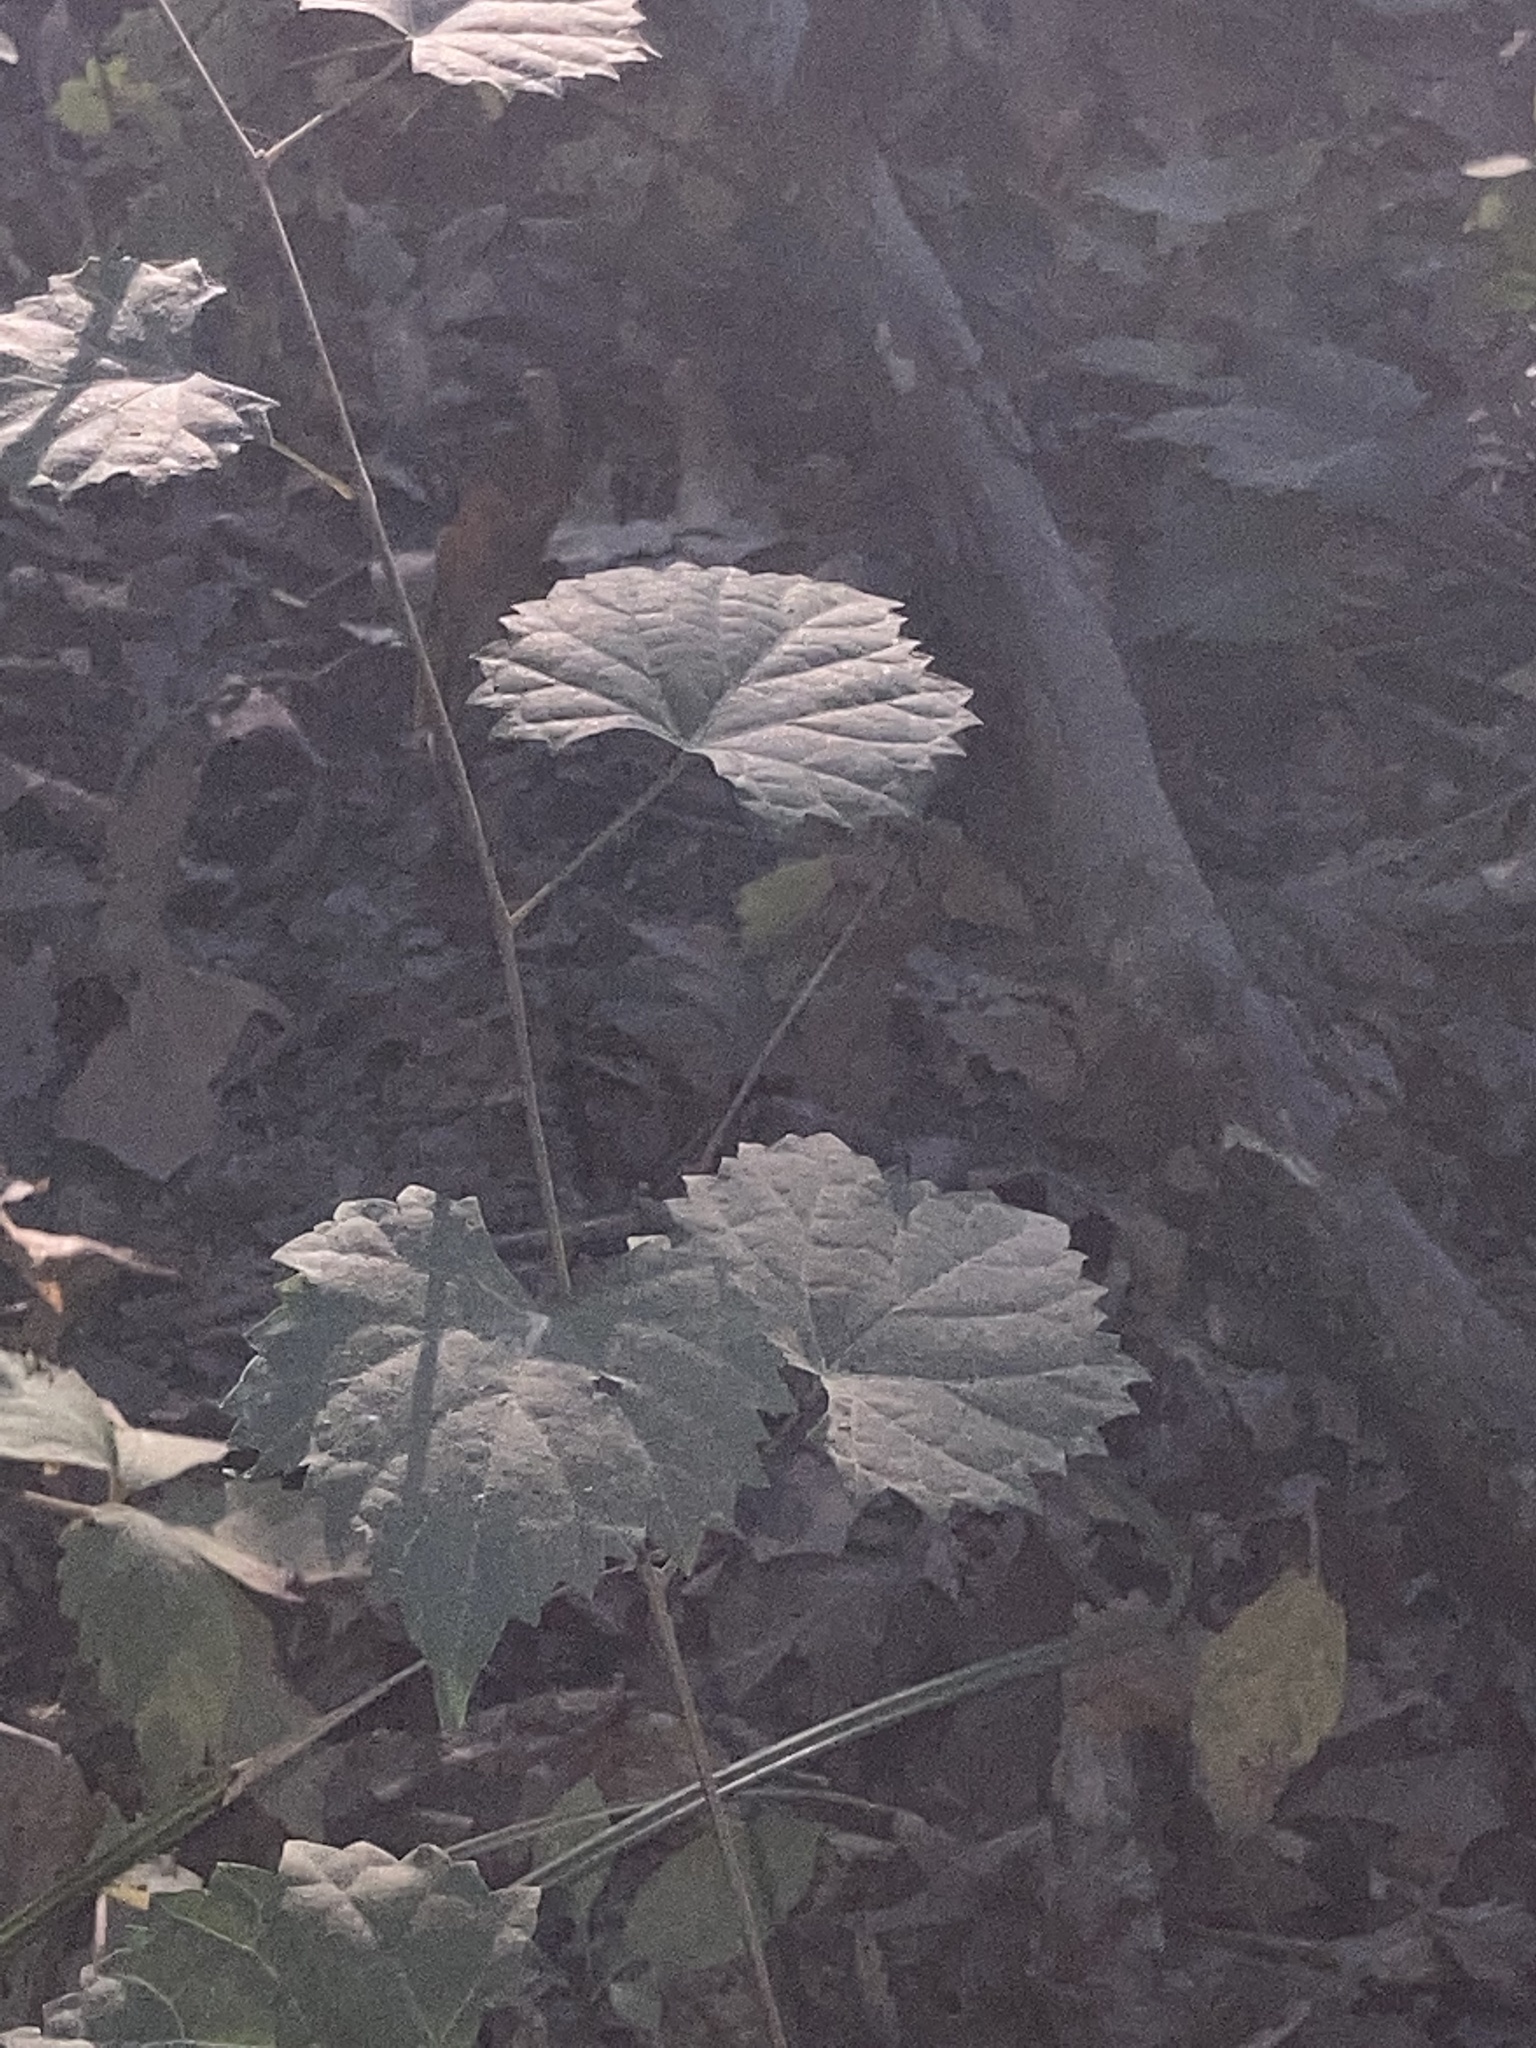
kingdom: Plantae
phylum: Tracheophyta
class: Magnoliopsida
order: Vitales
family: Vitaceae
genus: Vitis
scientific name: Vitis rotundifolia
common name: Muscadine grape
